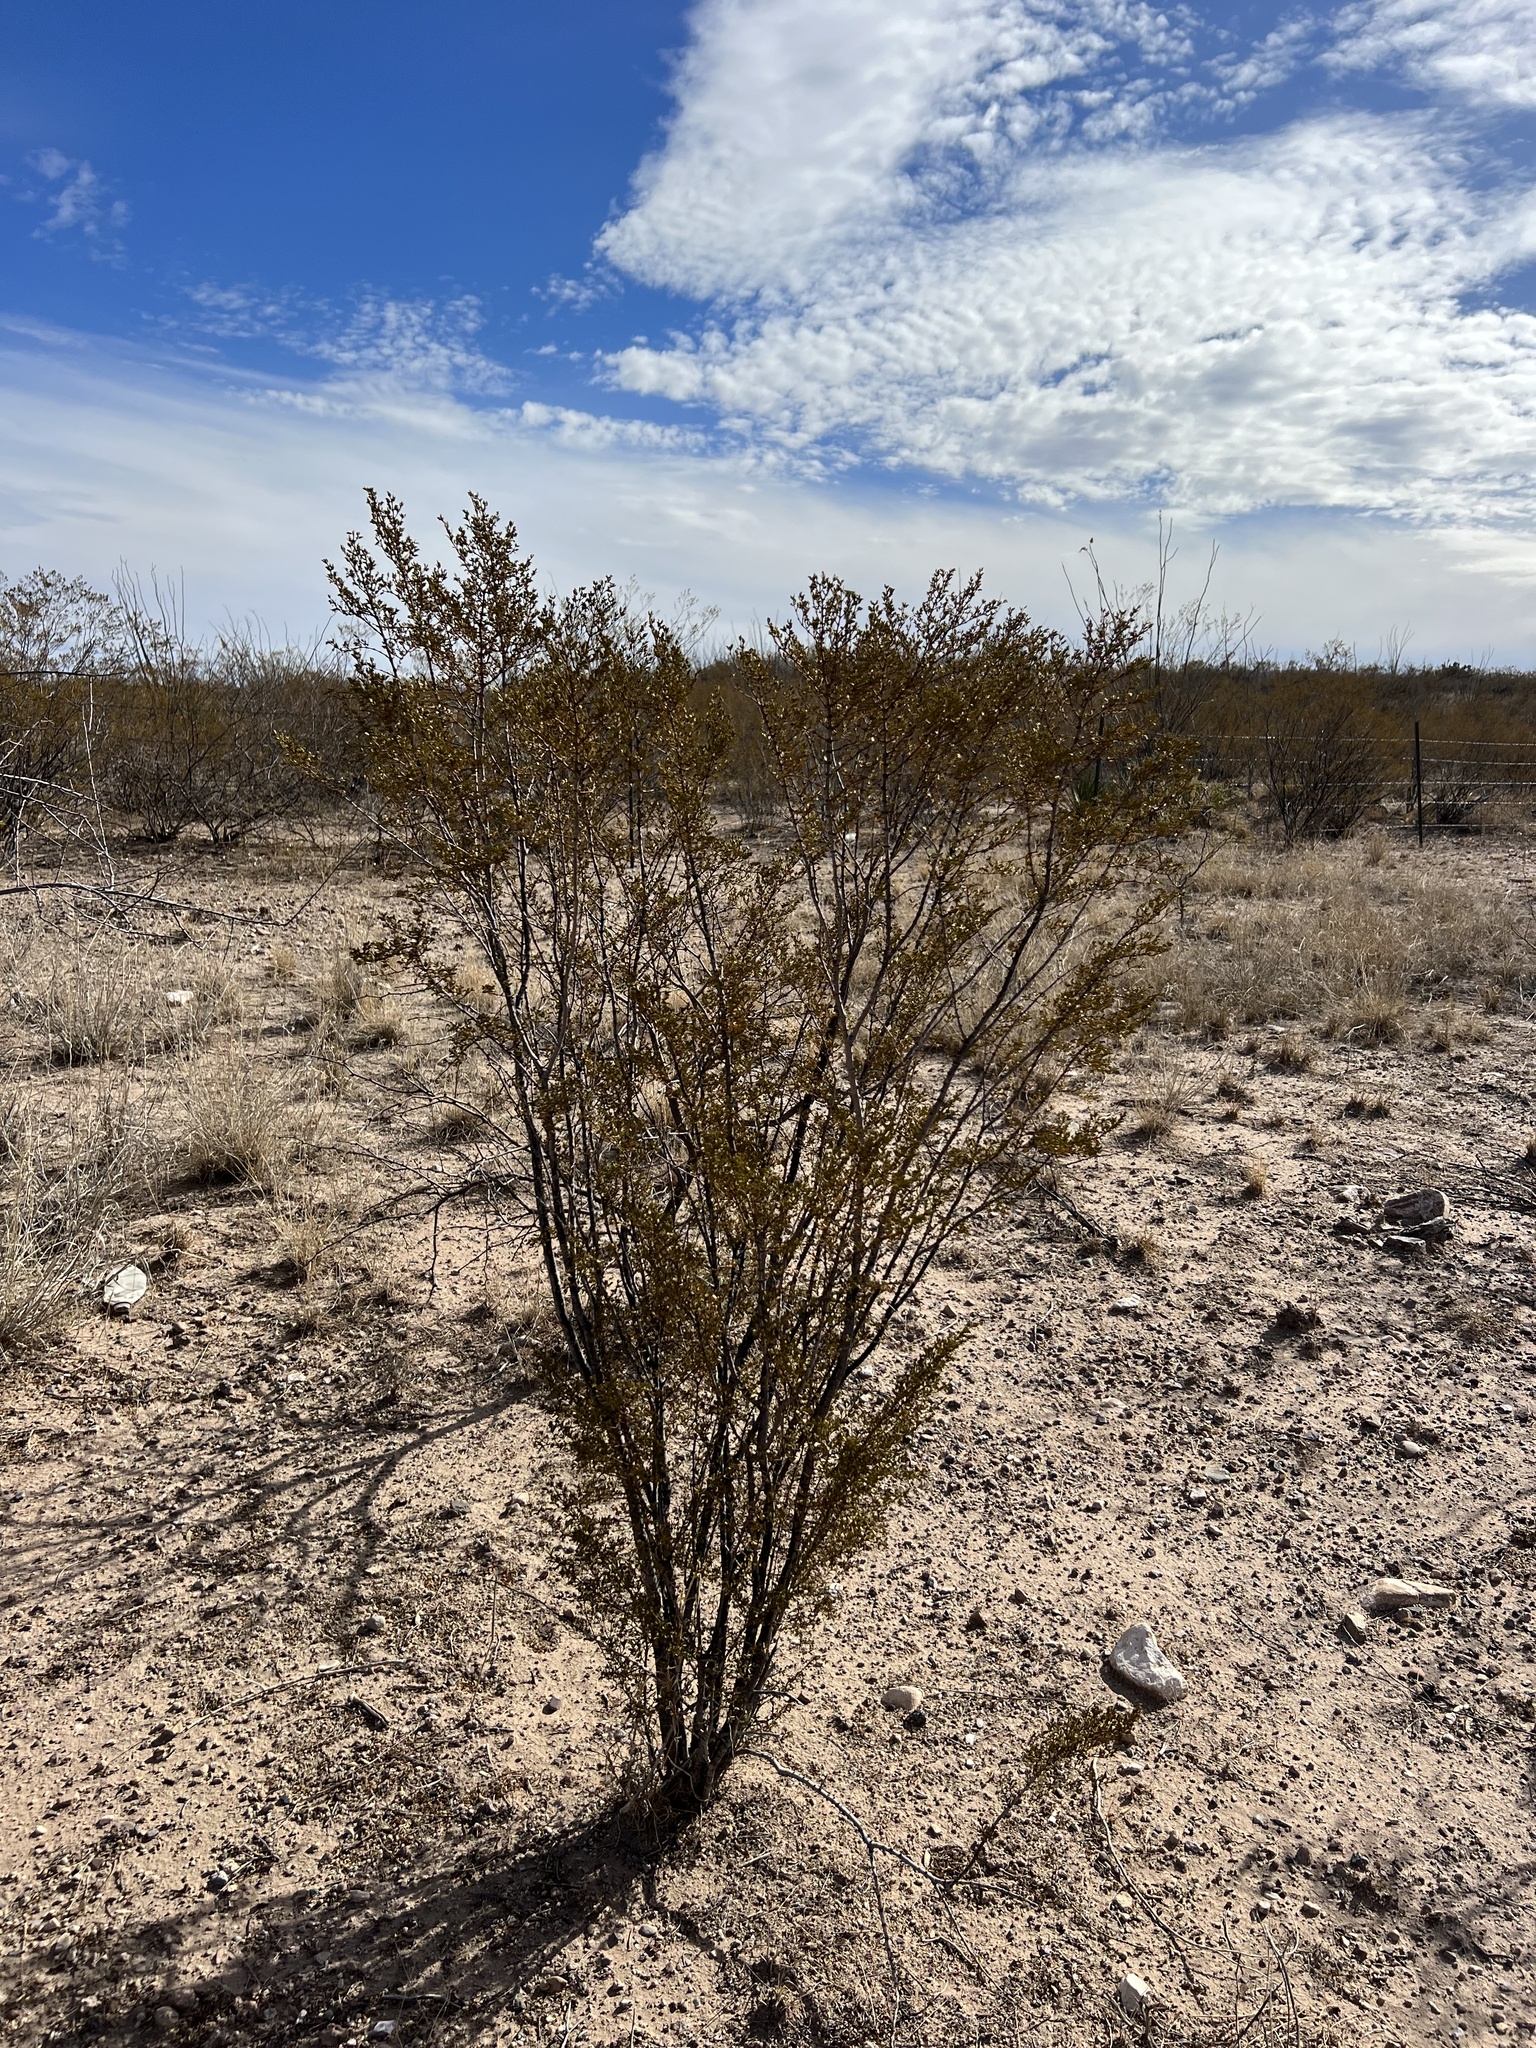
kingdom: Plantae
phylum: Tracheophyta
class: Magnoliopsida
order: Zygophyllales
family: Zygophyllaceae
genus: Larrea
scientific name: Larrea tridentata
